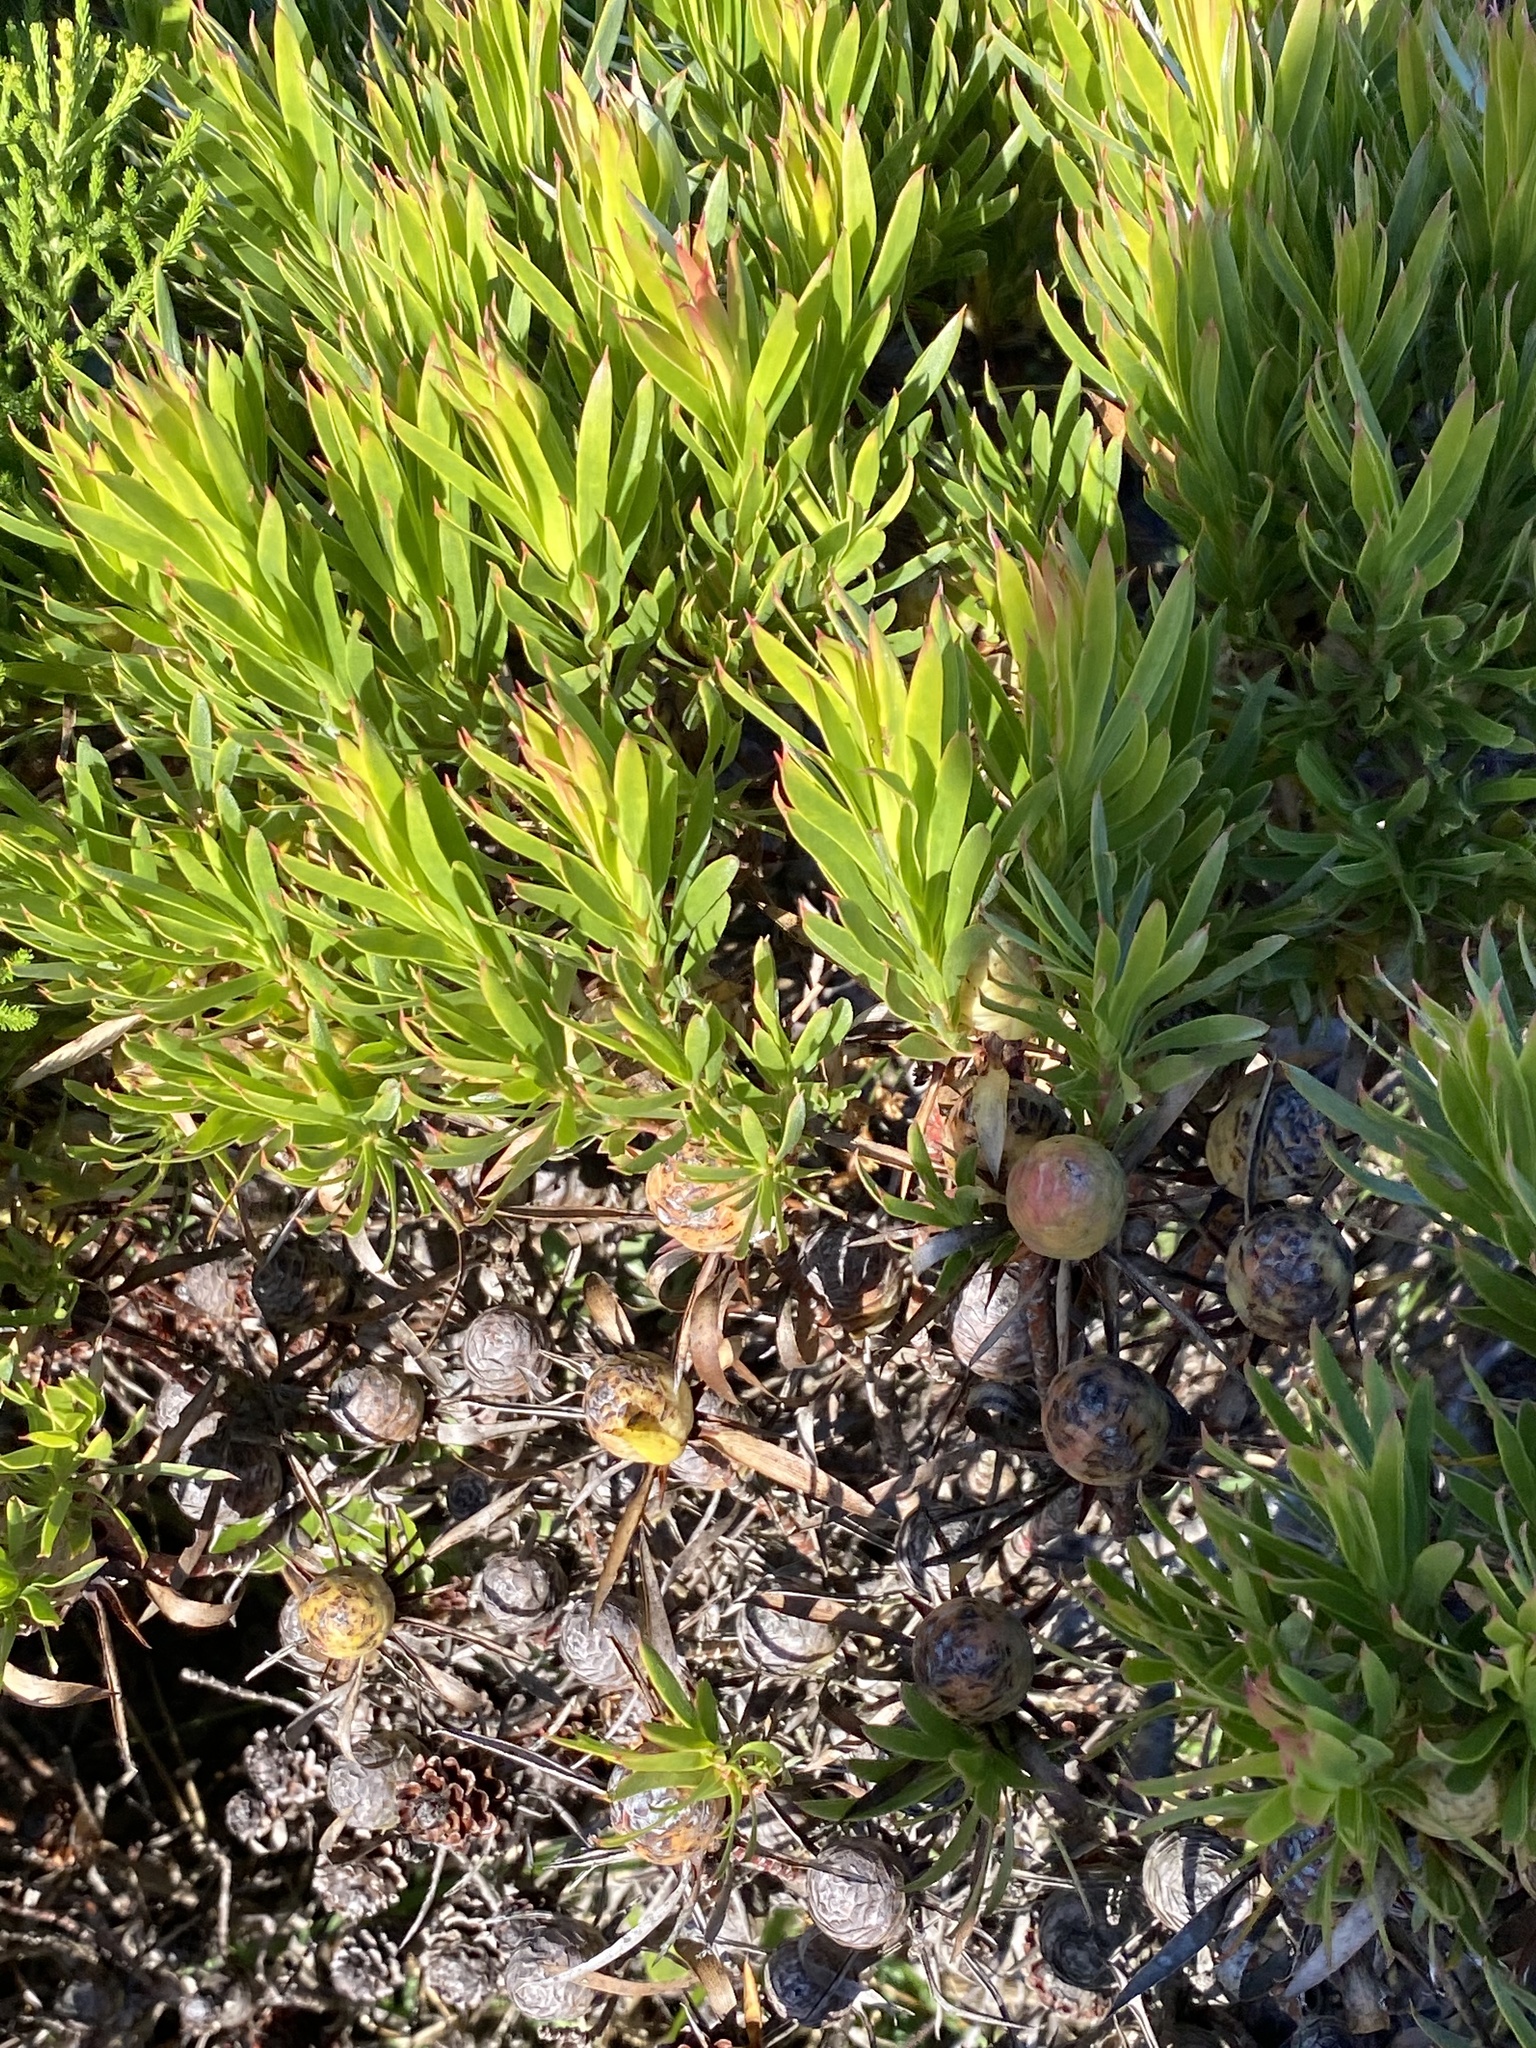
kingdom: Plantae
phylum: Tracheophyta
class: Magnoliopsida
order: Proteales
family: Proteaceae
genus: Leucadendron
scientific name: Leucadendron xanthoconus
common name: Sickle-leaf conebush
